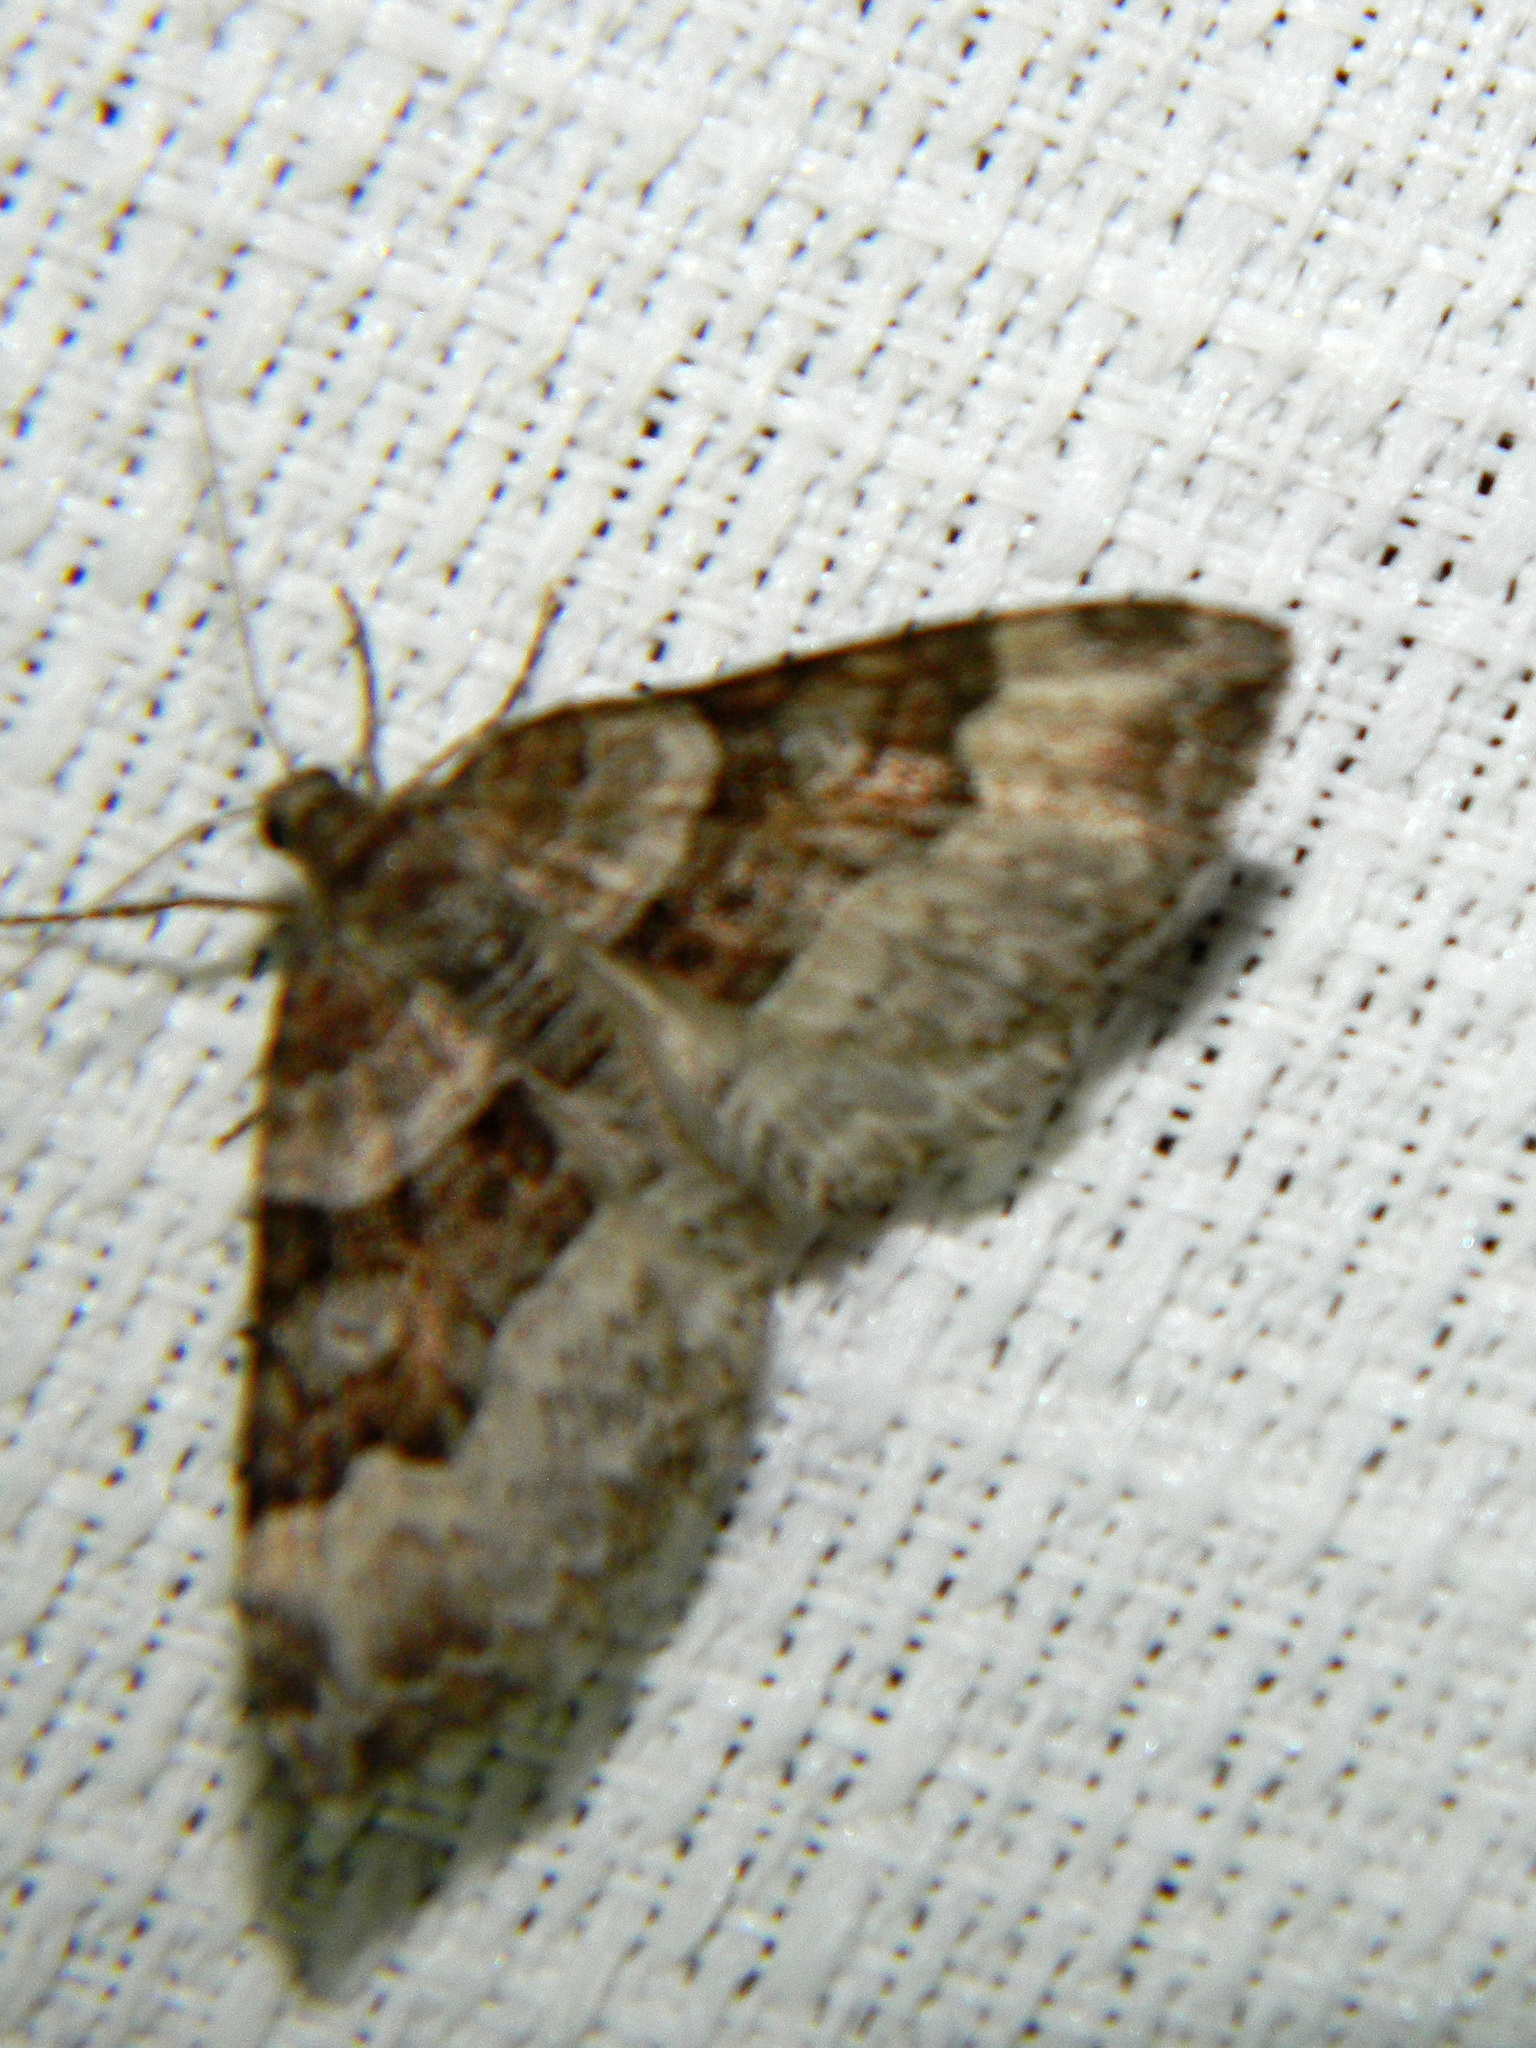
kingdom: Animalia
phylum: Arthropoda
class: Insecta
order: Lepidoptera
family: Geometridae
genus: Xanthorhoe
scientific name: Xanthorhoe lacustrata
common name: Toothed brown carpet
